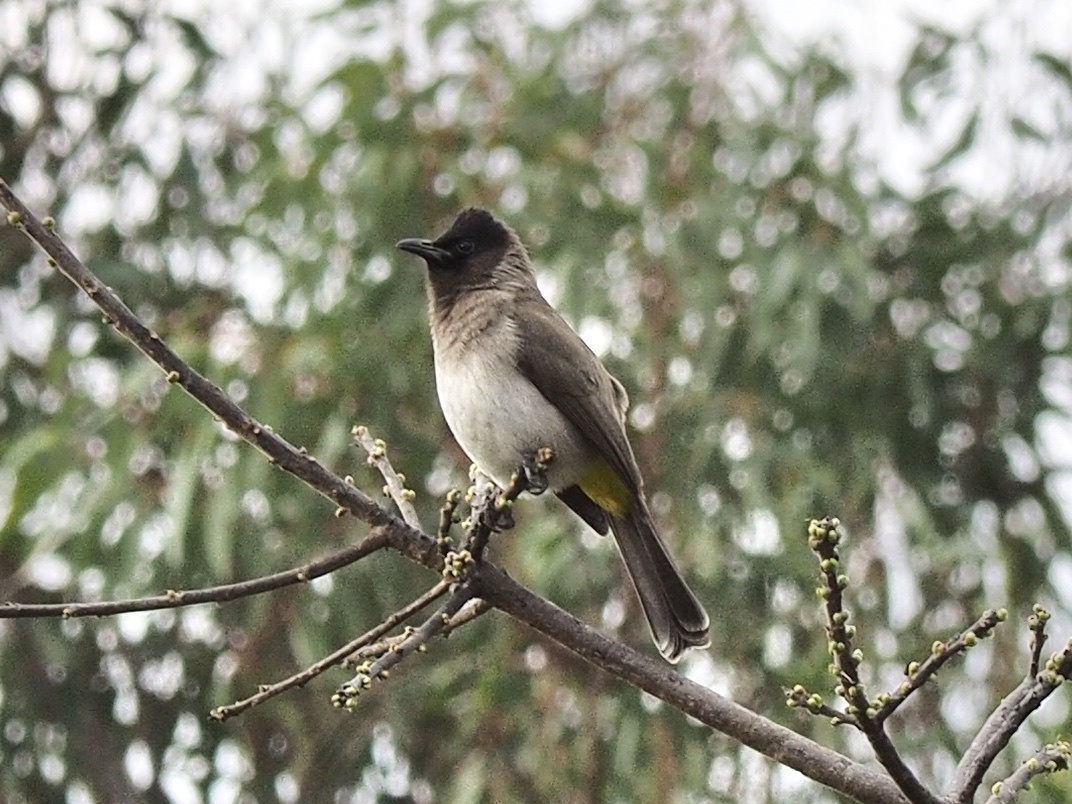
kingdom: Animalia
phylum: Chordata
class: Aves
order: Passeriformes
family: Pycnonotidae
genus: Pycnonotus
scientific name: Pycnonotus barbatus
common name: Common bulbul
